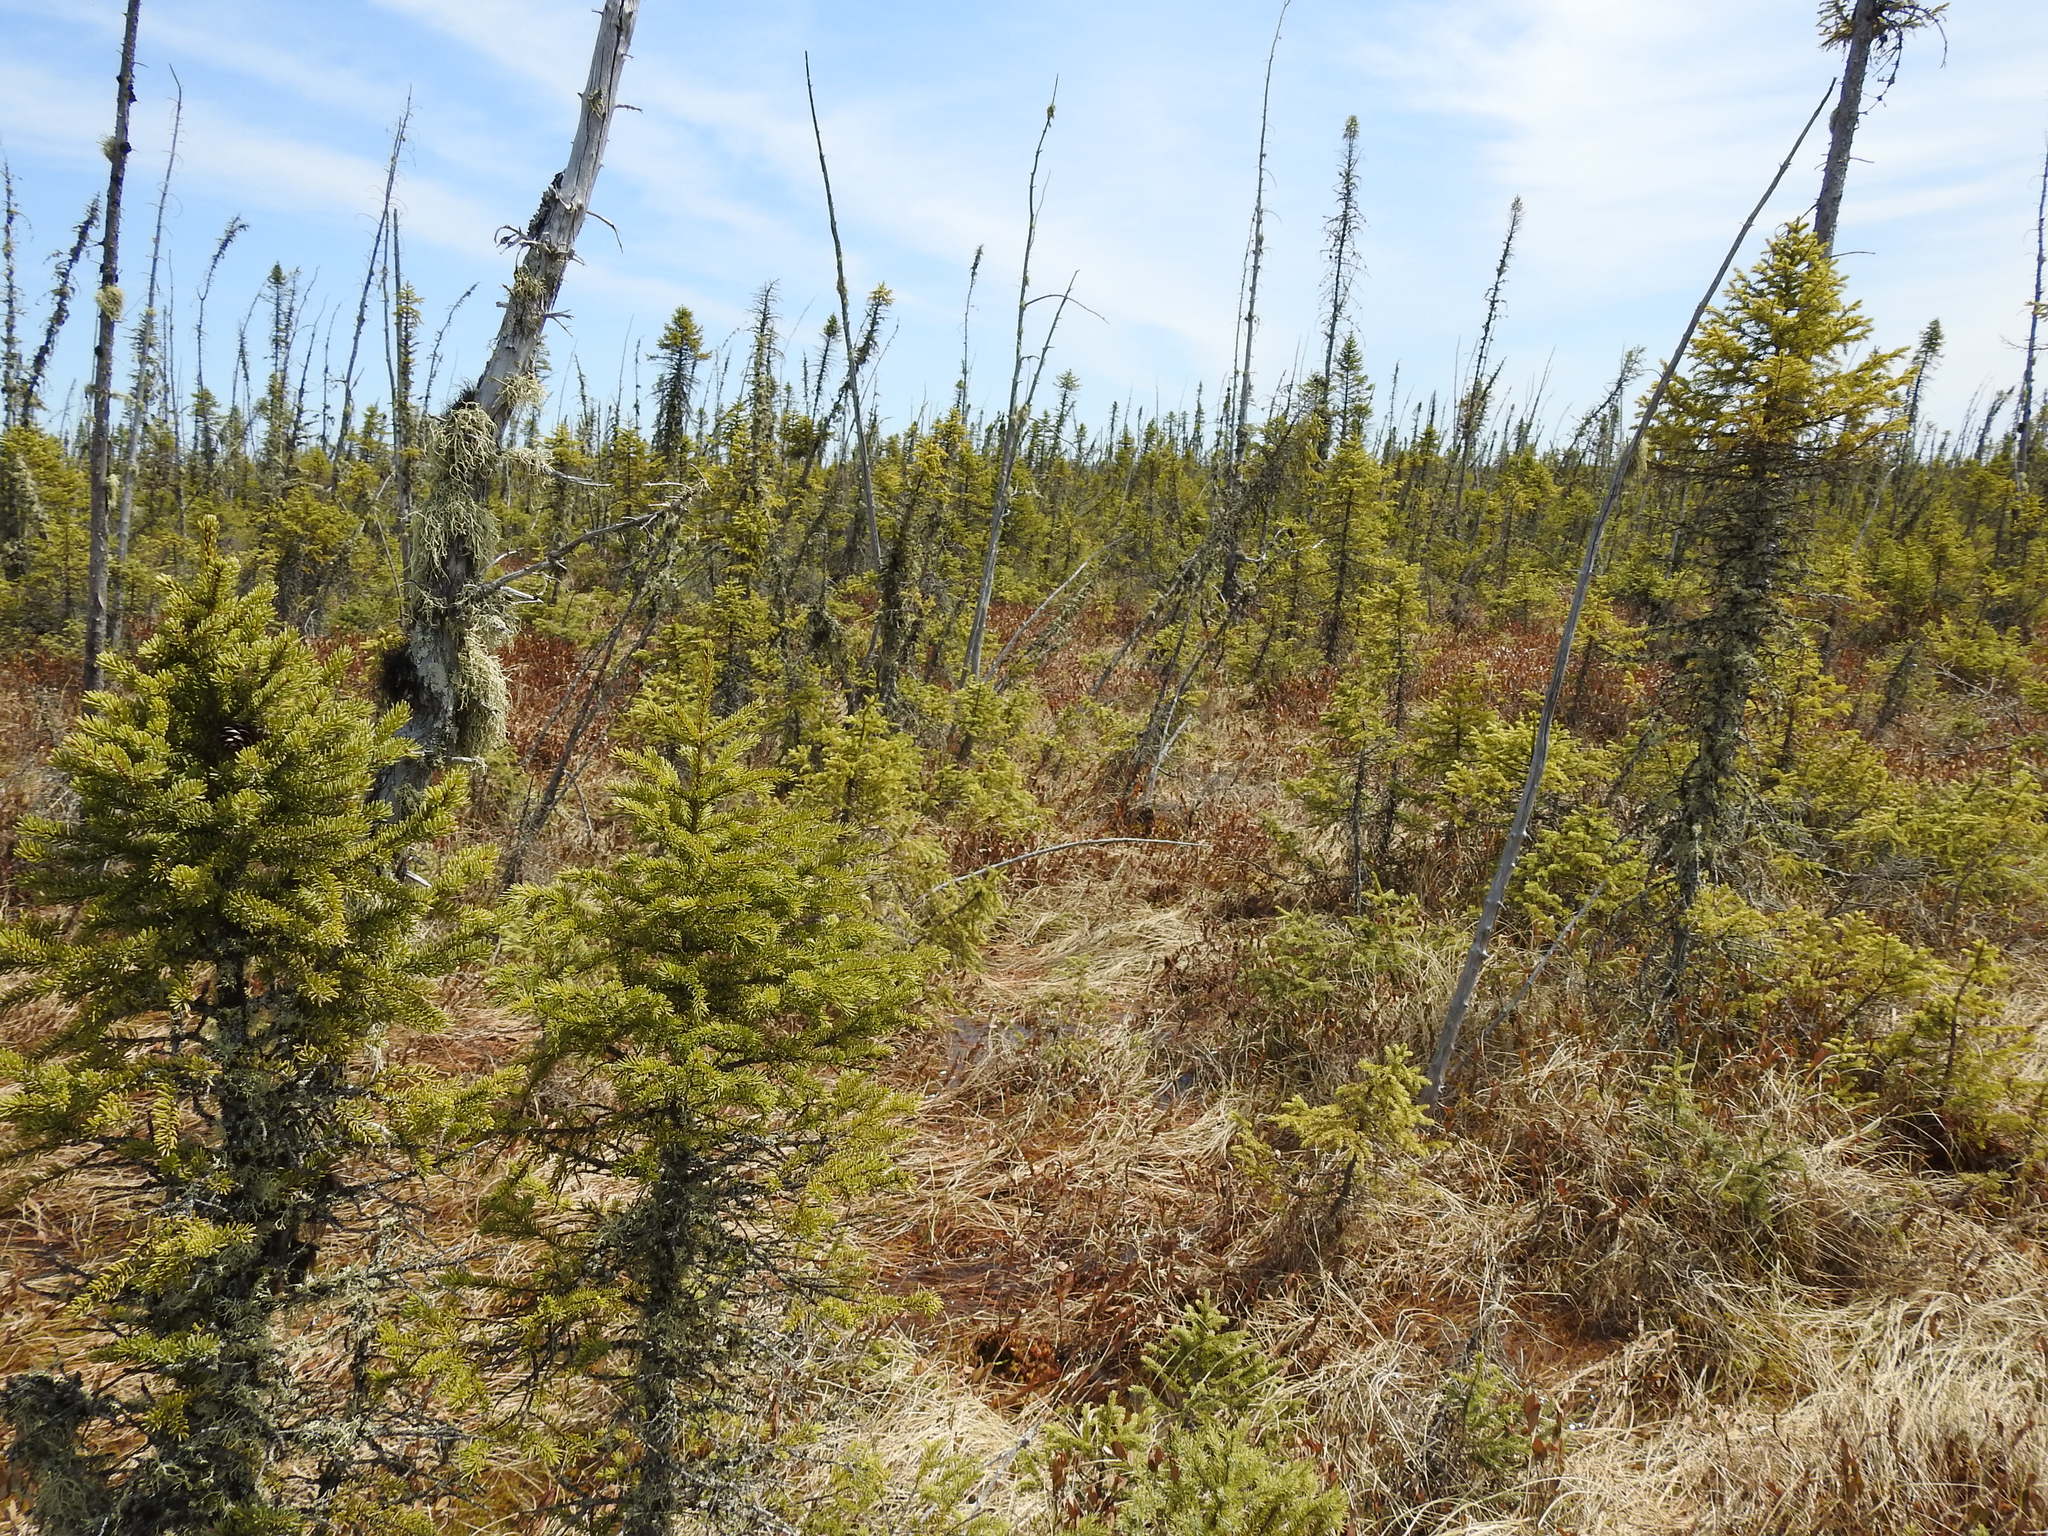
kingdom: Plantae
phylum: Tracheophyta
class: Pinopsida
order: Pinales
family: Pinaceae
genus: Picea
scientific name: Picea mariana
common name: Black spruce
